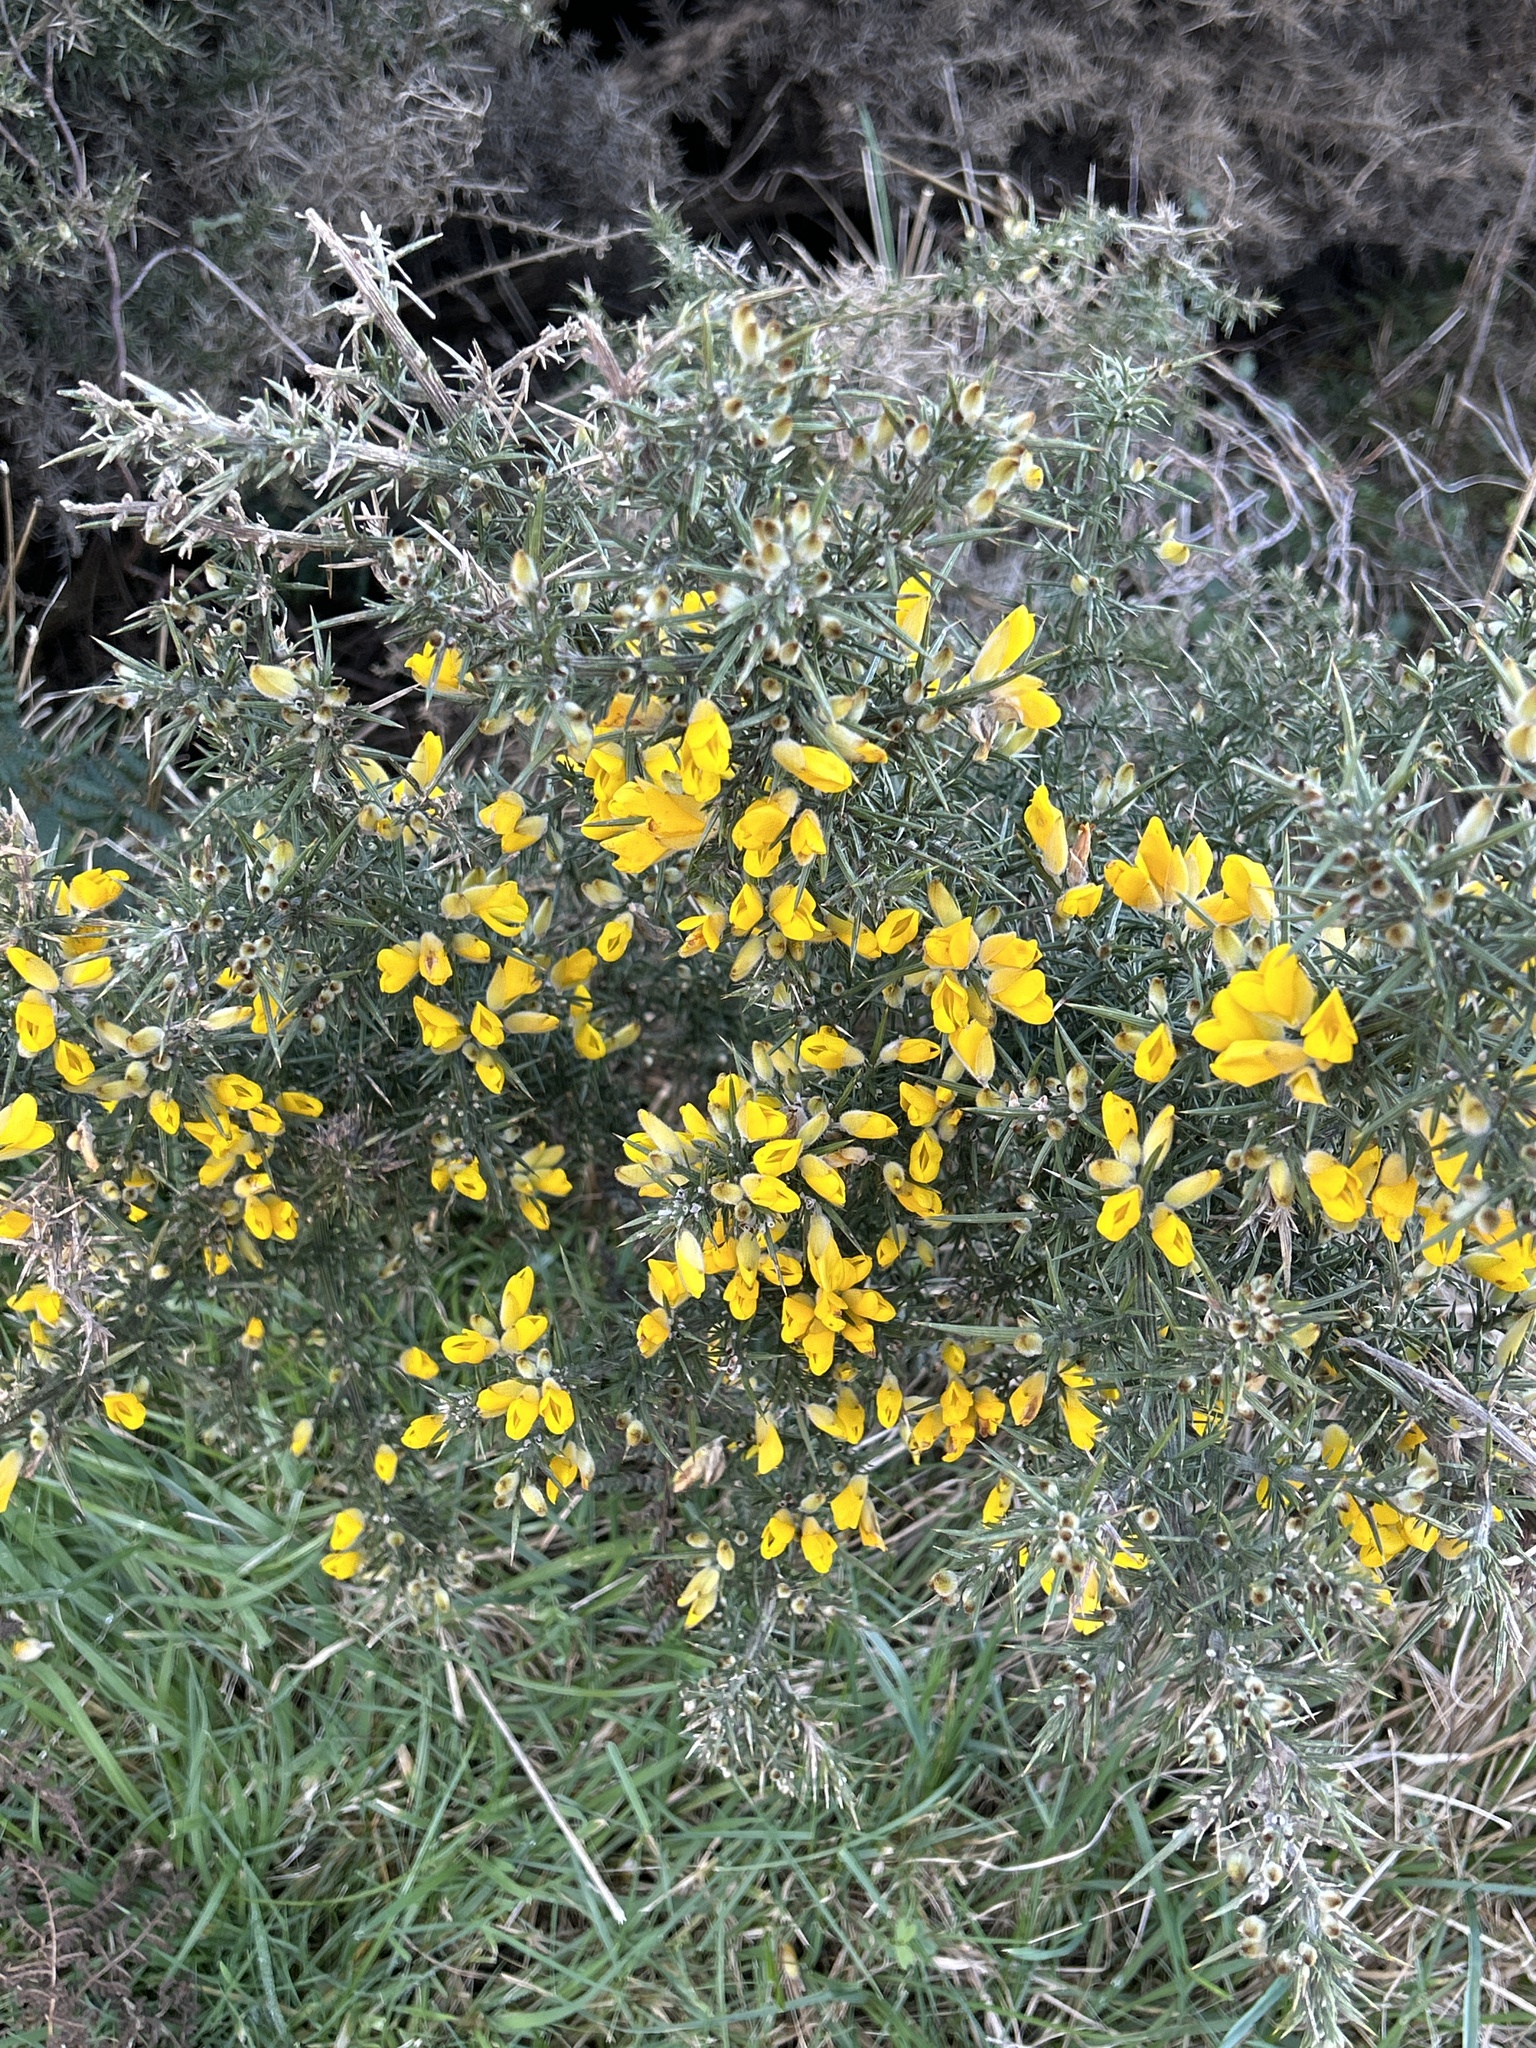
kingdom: Plantae
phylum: Tracheophyta
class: Magnoliopsida
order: Fabales
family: Fabaceae
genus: Ulex
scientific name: Ulex europaeus
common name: Common gorse
